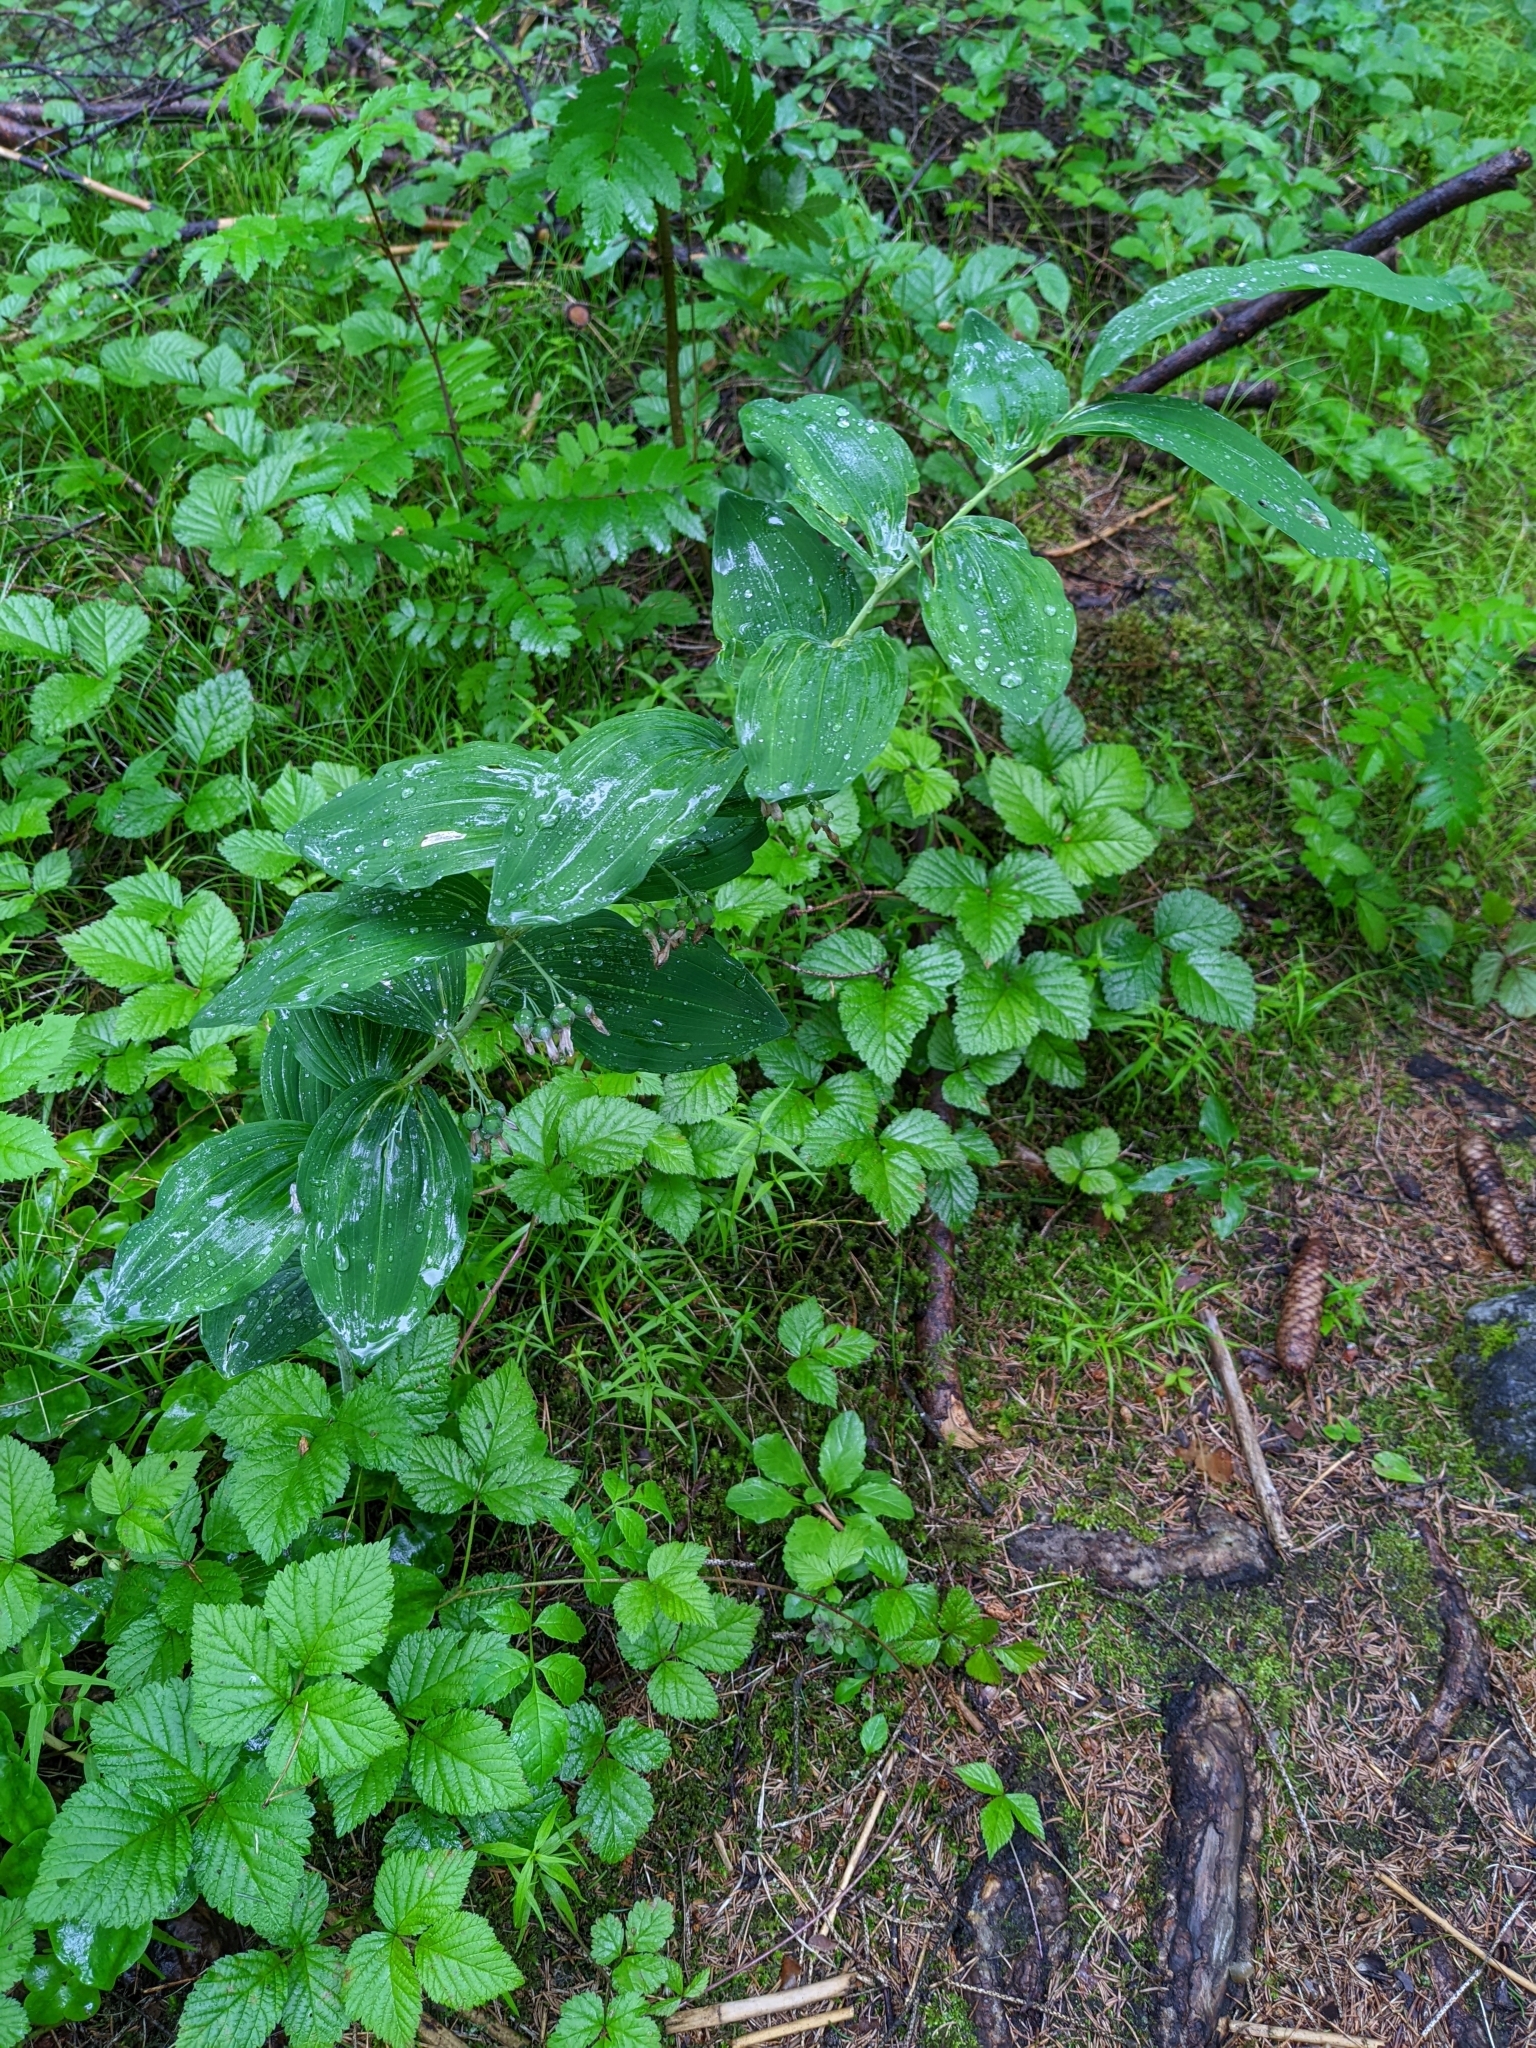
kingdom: Plantae
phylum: Tracheophyta
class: Liliopsida
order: Asparagales
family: Asparagaceae
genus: Polygonatum
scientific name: Polygonatum multiflorum
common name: Solomon's-seal
